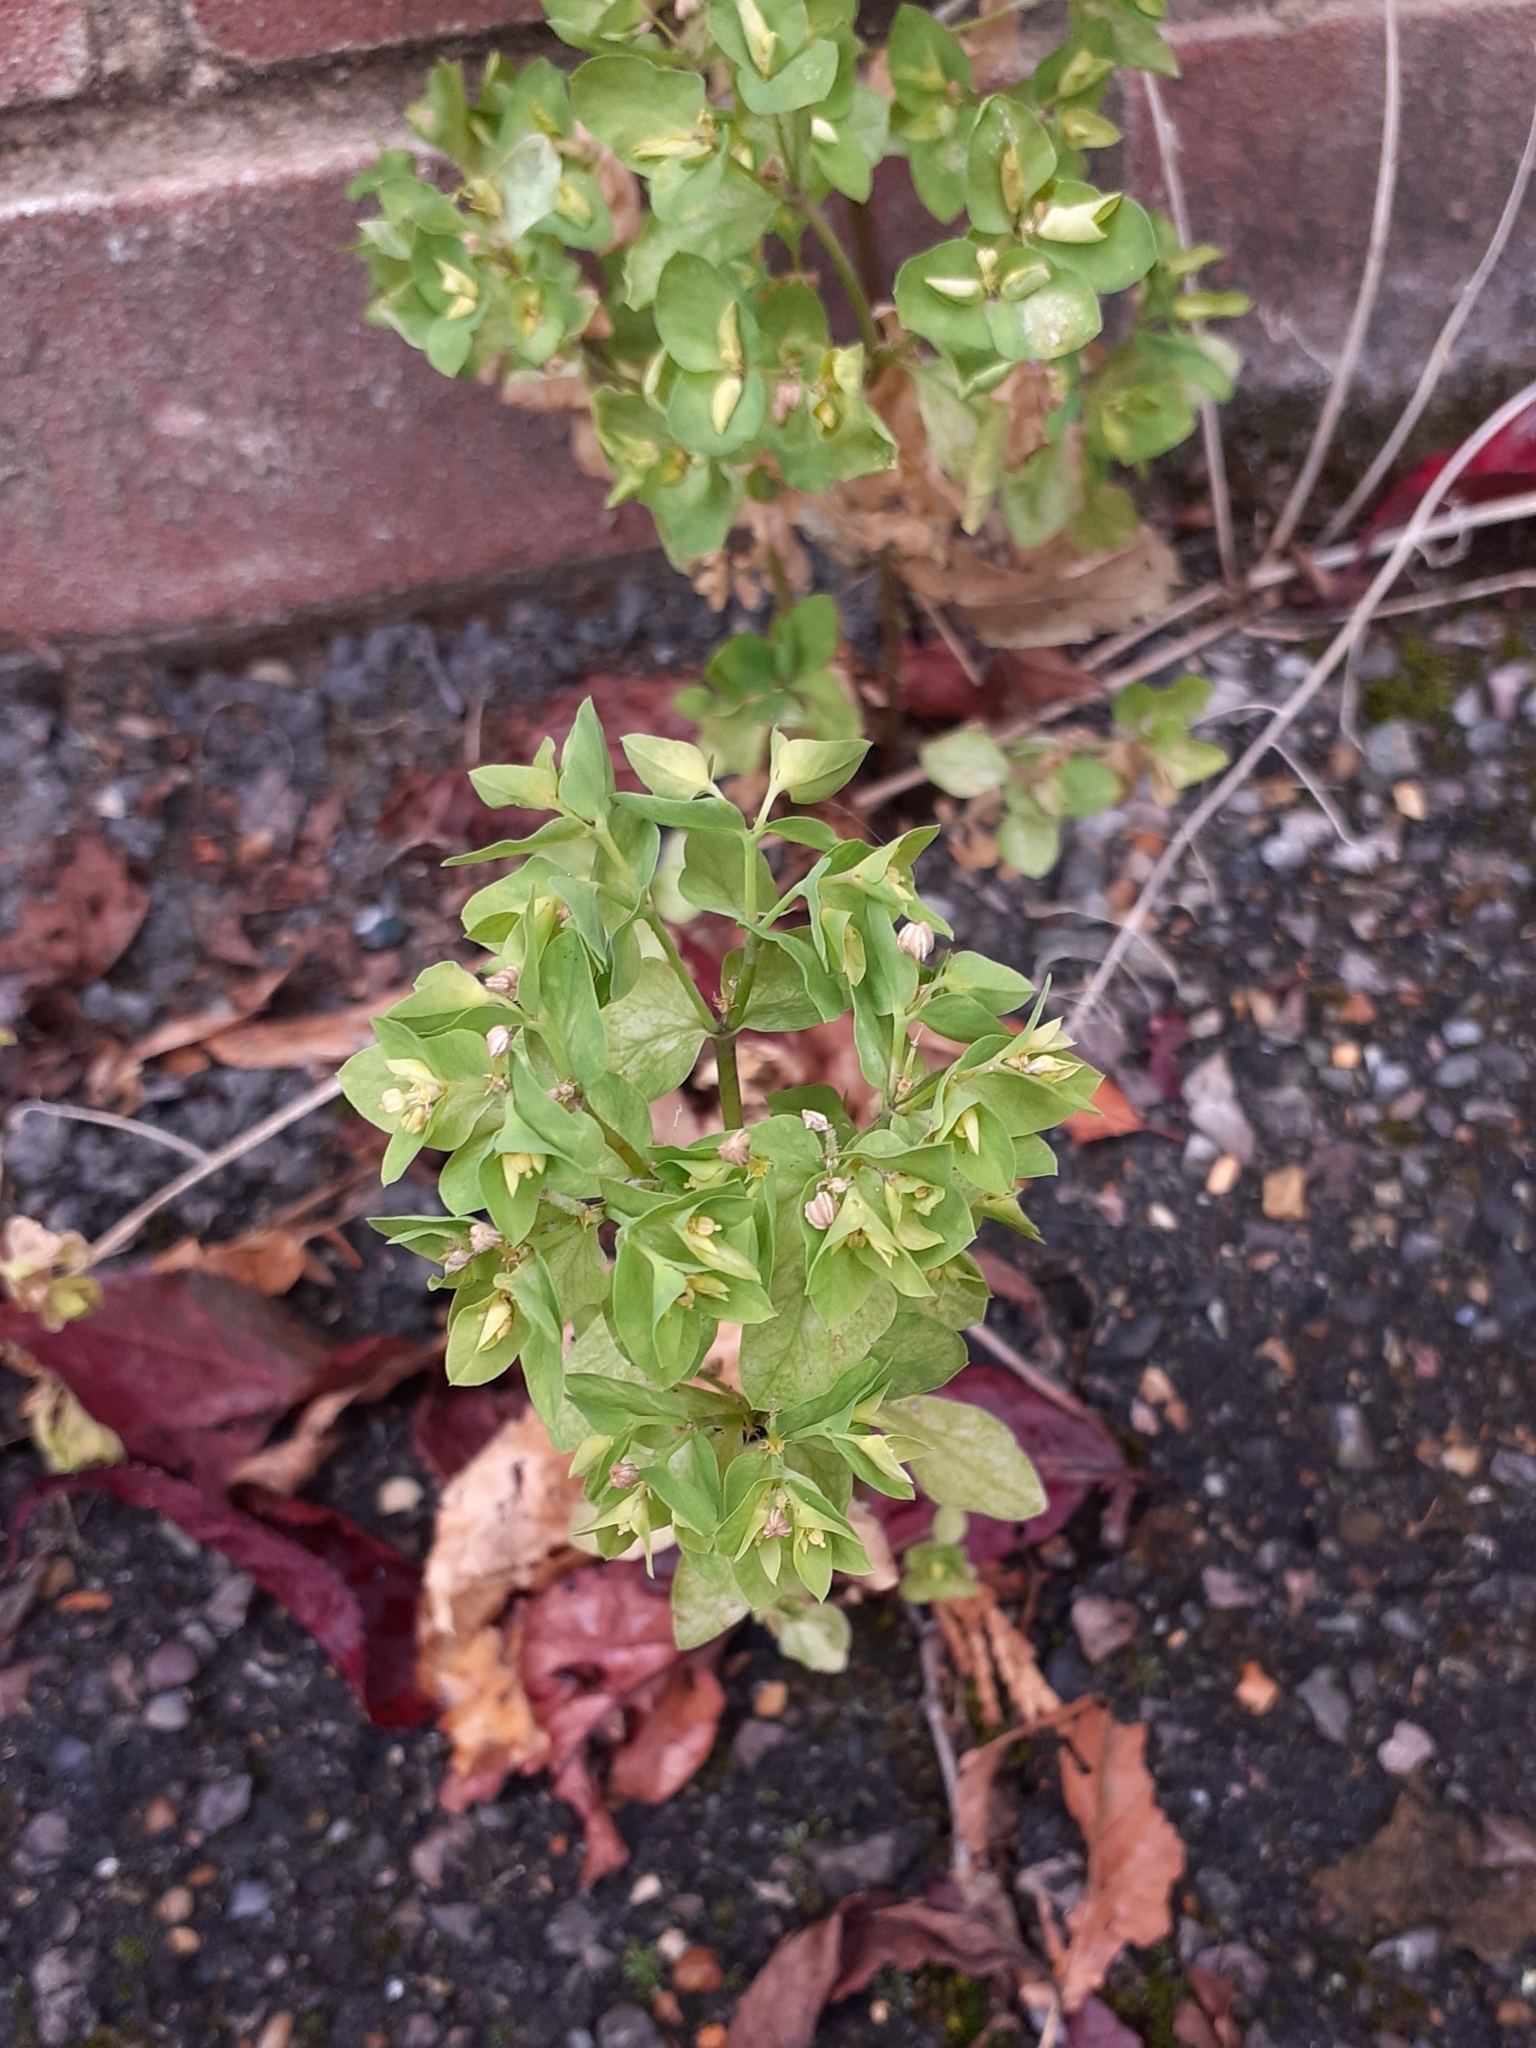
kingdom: Plantae
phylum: Tracheophyta
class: Magnoliopsida
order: Malpighiales
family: Euphorbiaceae
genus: Euphorbia
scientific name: Euphorbia peplus
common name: Petty spurge
